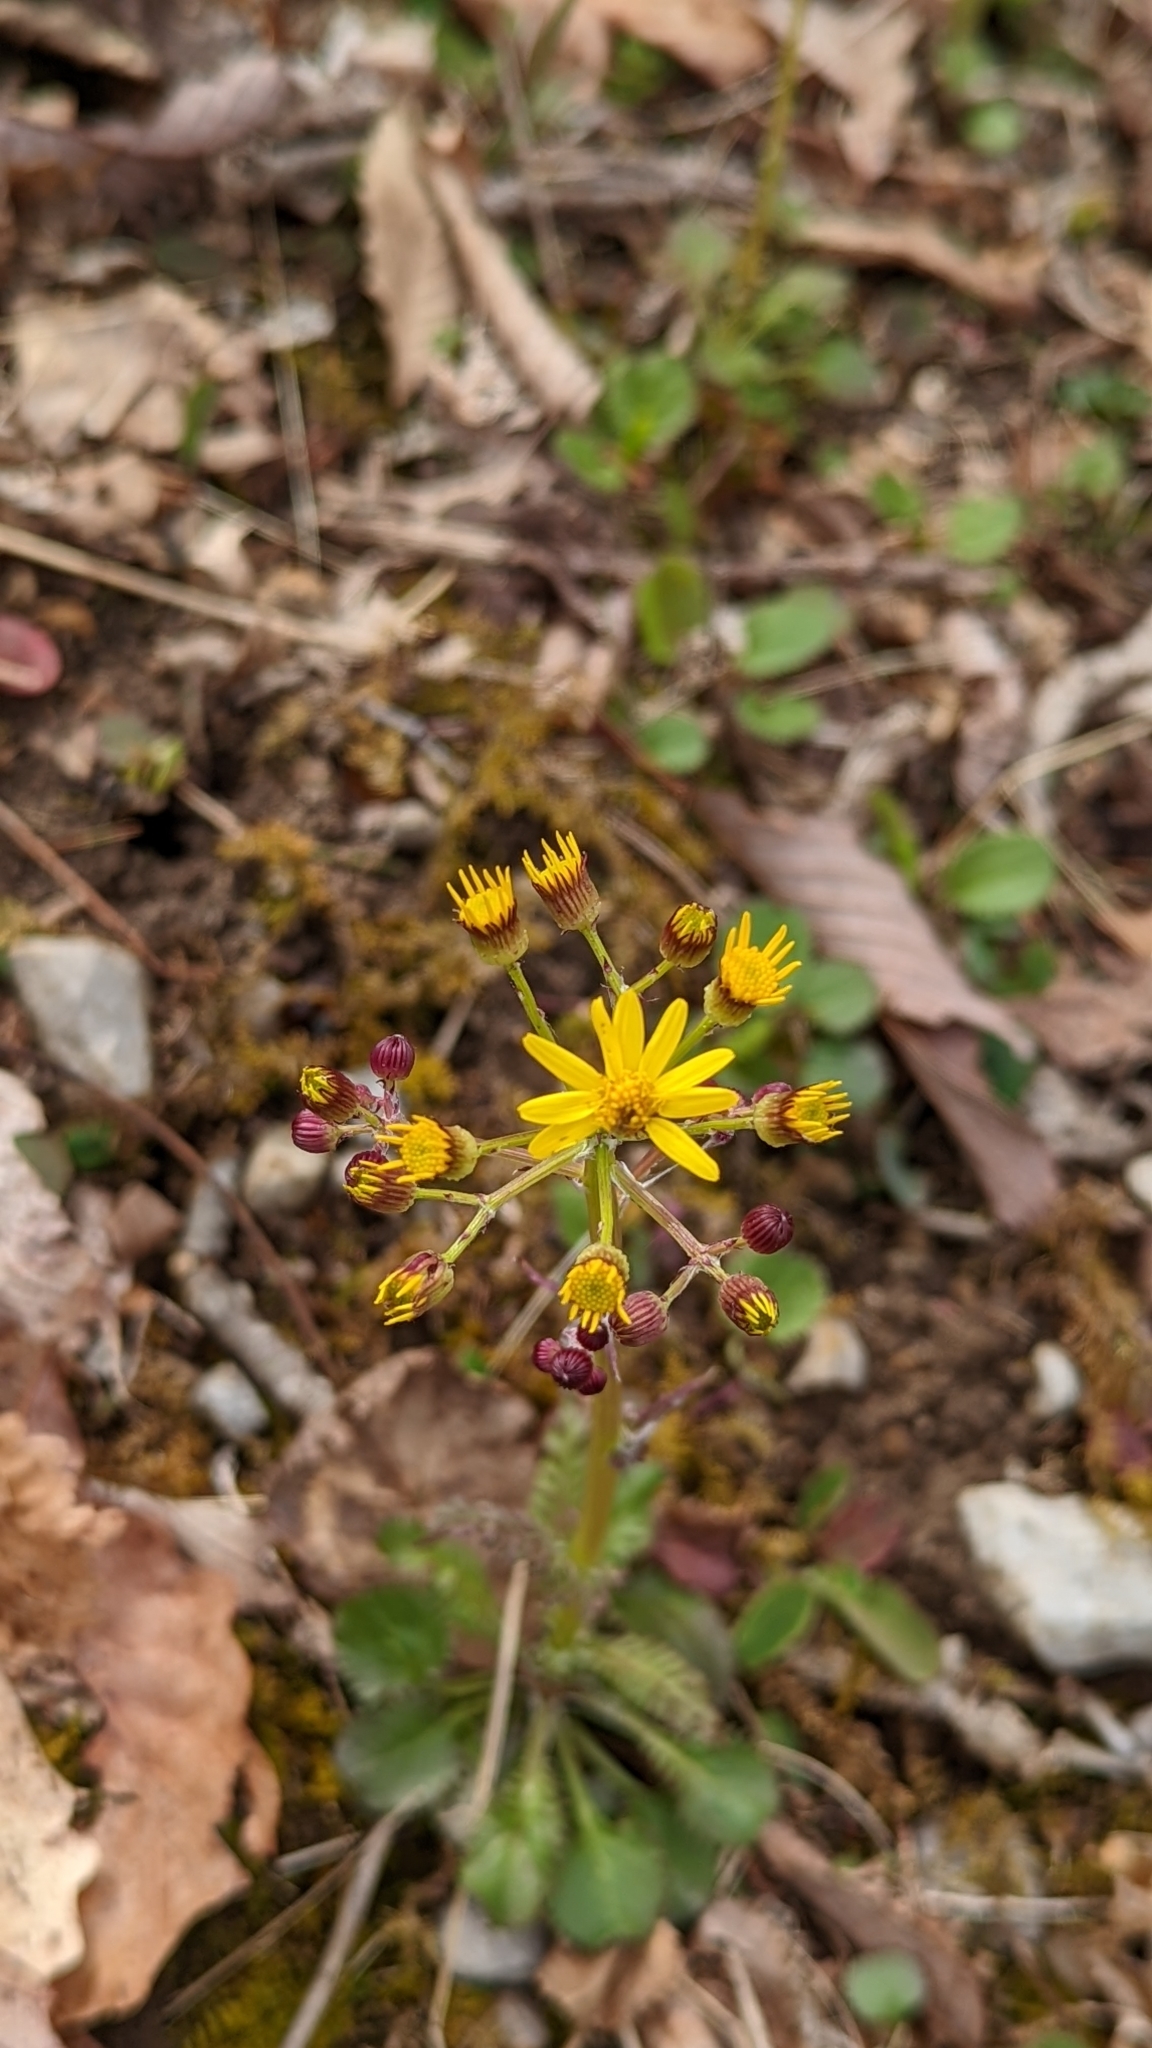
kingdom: Plantae
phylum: Tracheophyta
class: Magnoliopsida
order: Asterales
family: Asteraceae
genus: Packera
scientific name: Packera obovata
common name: Round-leaf ragwort
